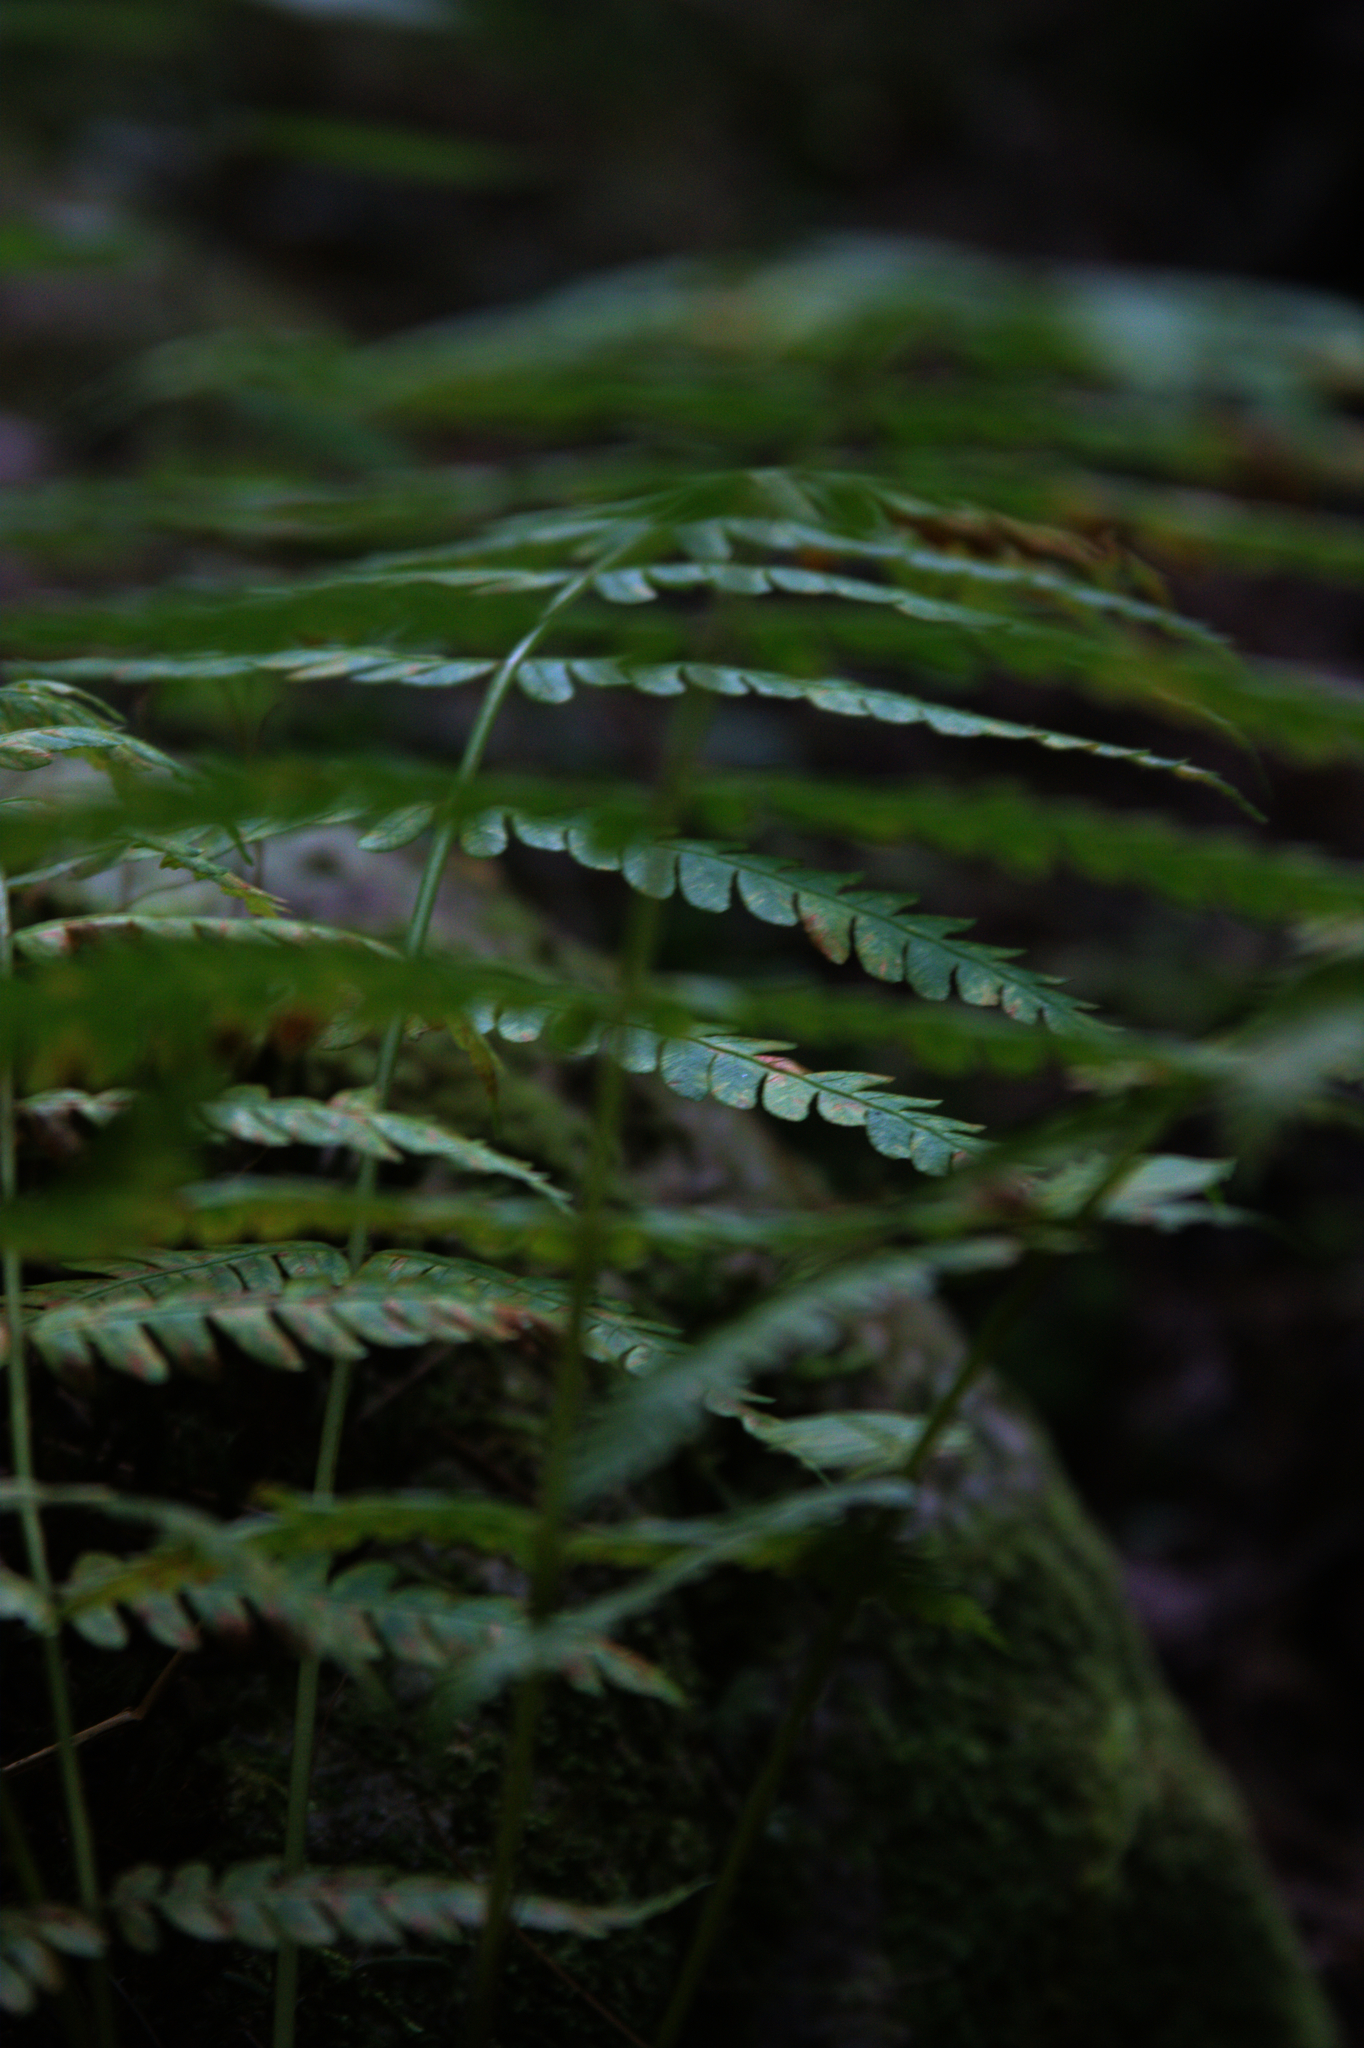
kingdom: Plantae
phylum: Tracheophyta
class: Polypodiopsida
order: Osmundales
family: Osmundaceae
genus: Osmundastrum
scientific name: Osmundastrum cinnamomeum
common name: Cinnamon fern
